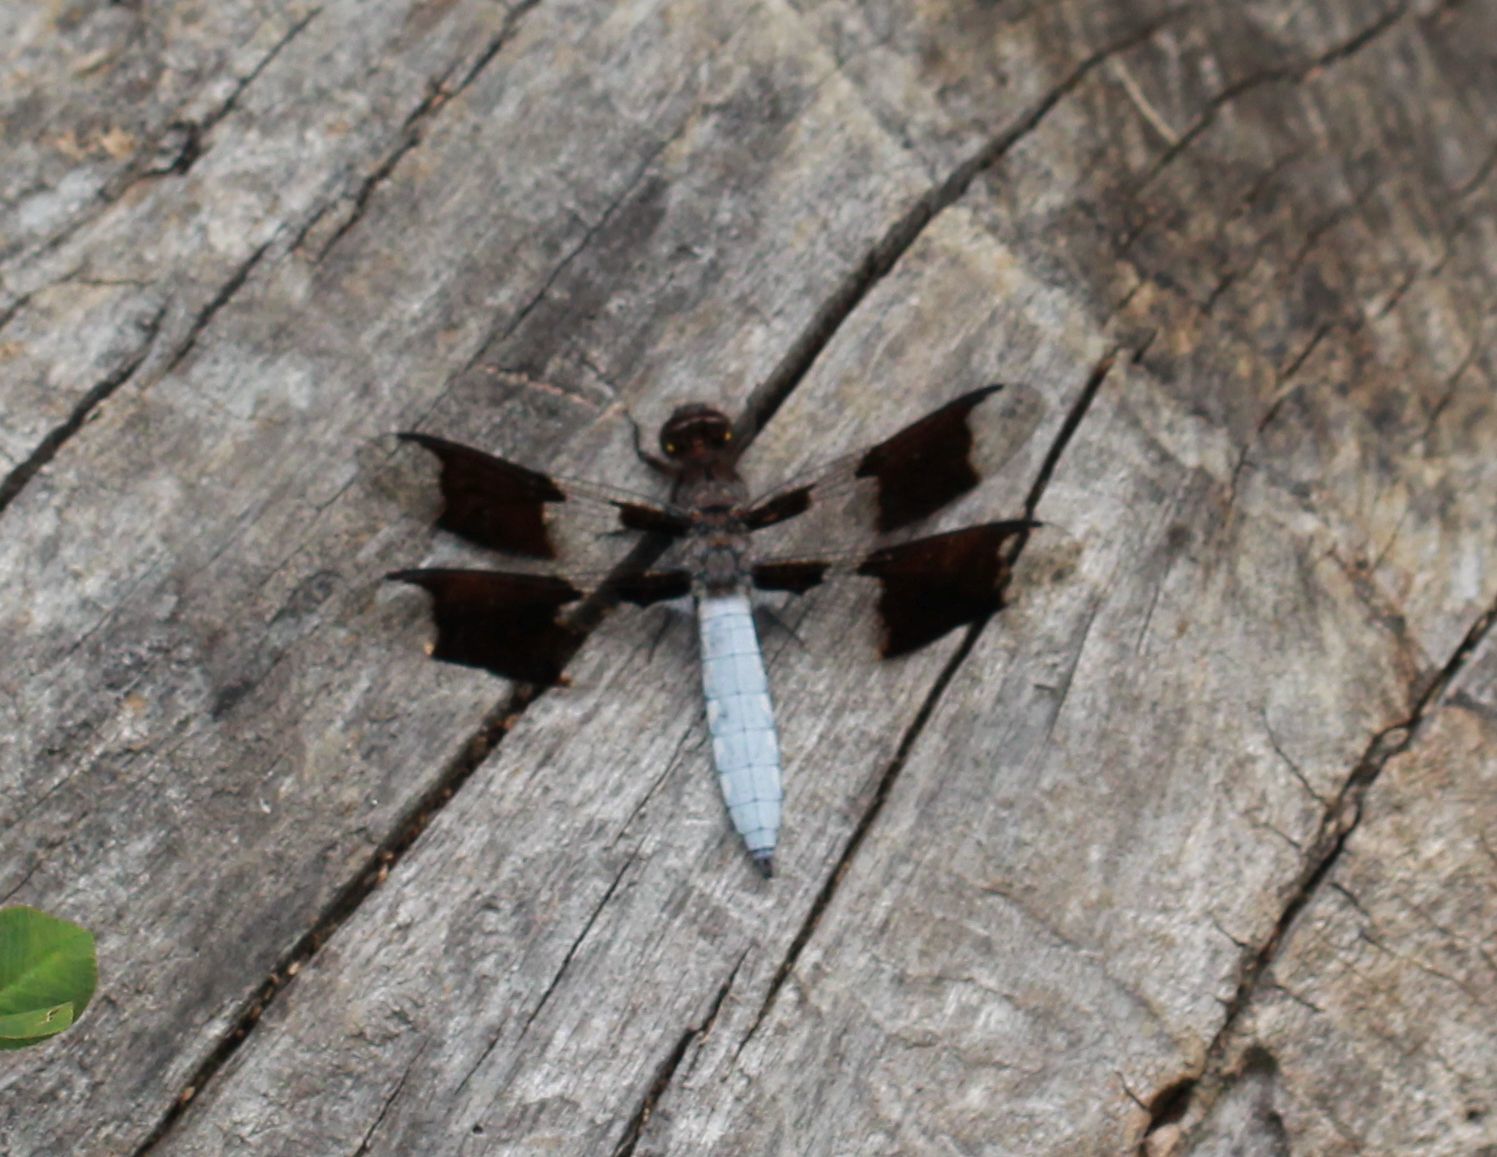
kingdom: Animalia
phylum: Arthropoda
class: Insecta
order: Odonata
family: Libellulidae
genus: Plathemis
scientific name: Plathemis lydia
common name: Common whitetail
